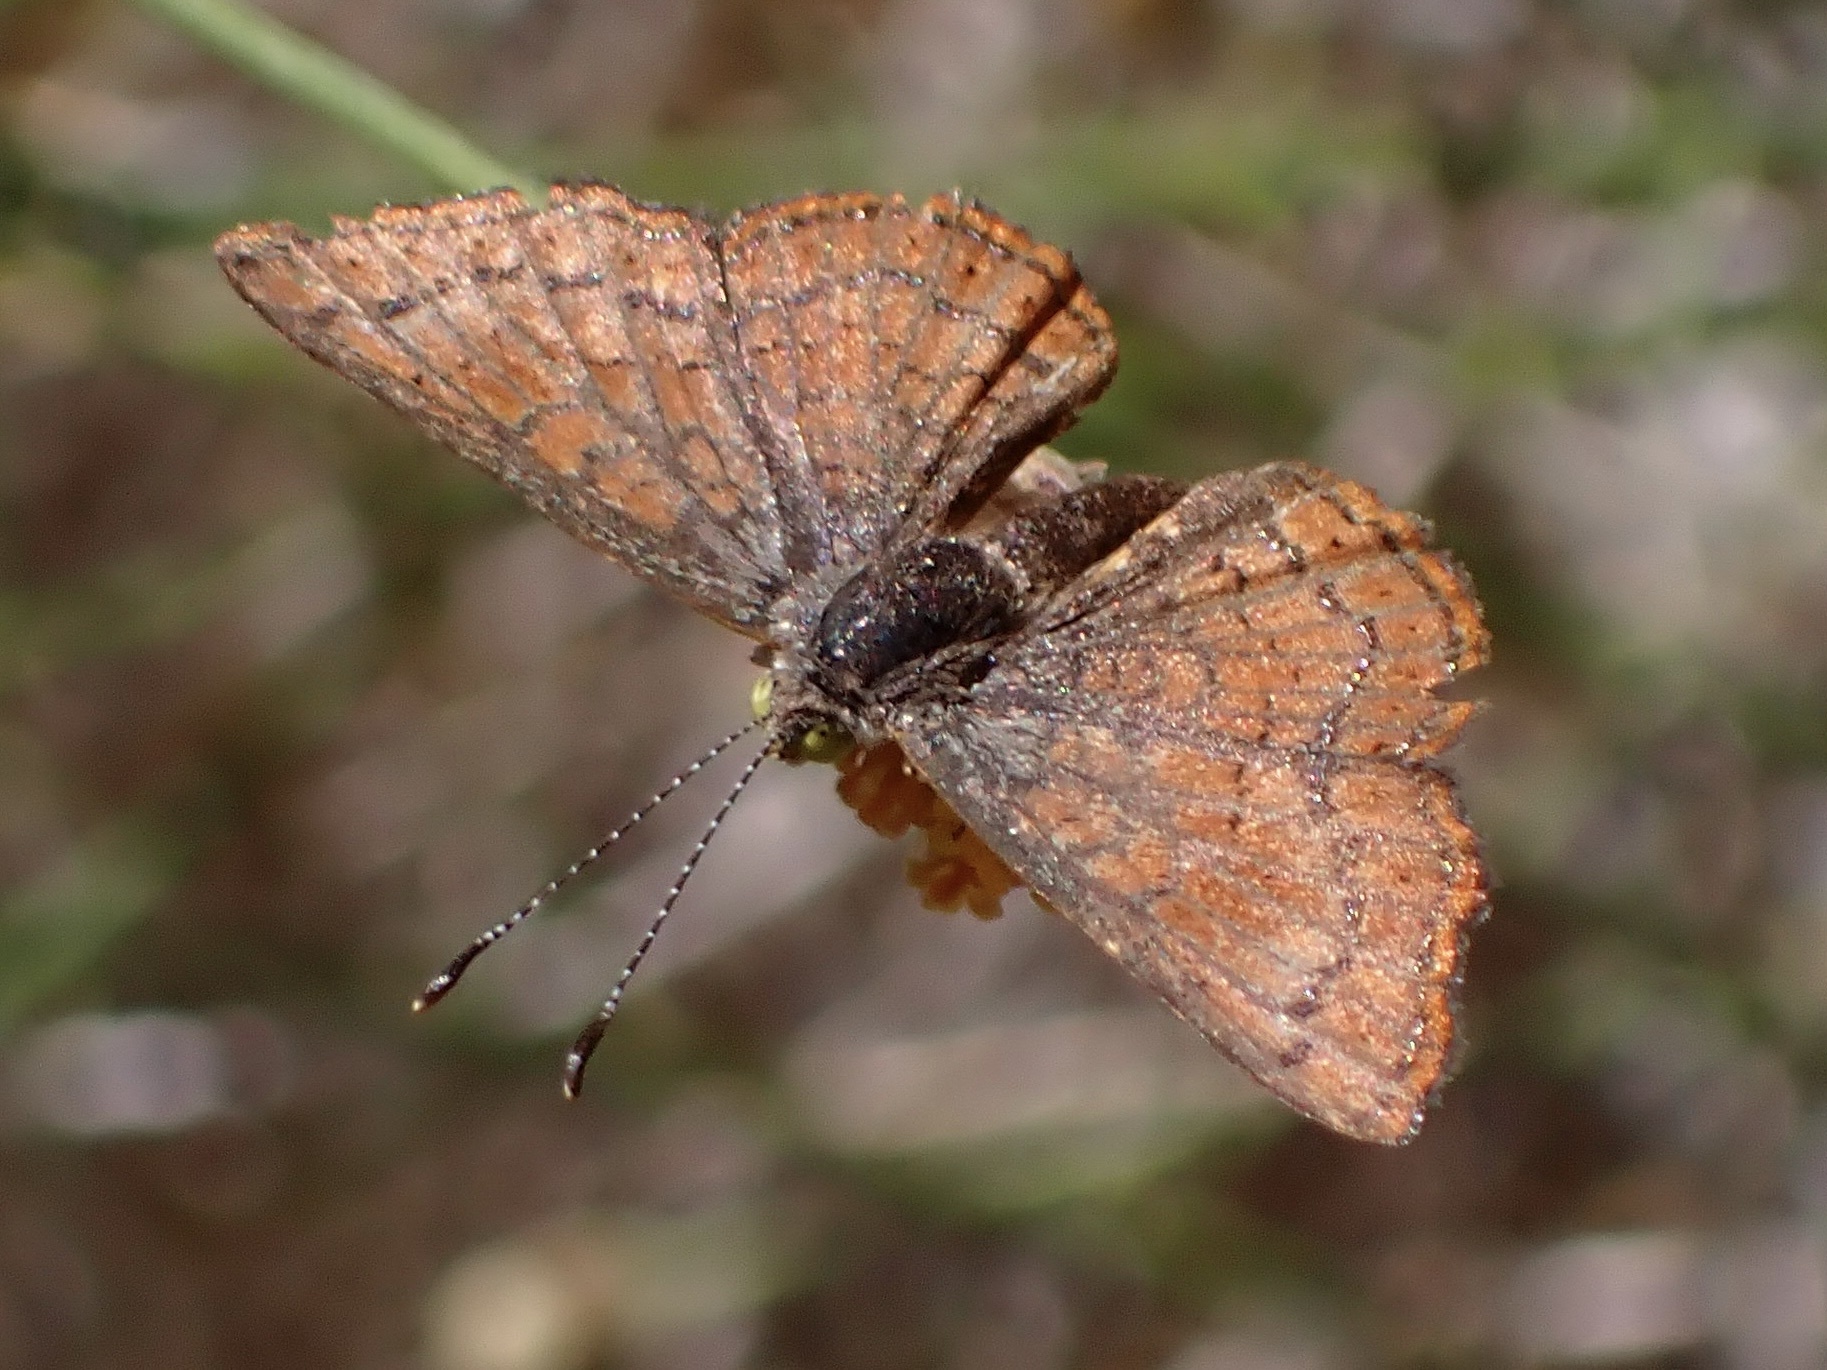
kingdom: Animalia
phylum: Arthropoda
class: Insecta
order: Lepidoptera
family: Lycaenidae
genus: Emesis
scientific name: Emesis wrighti
